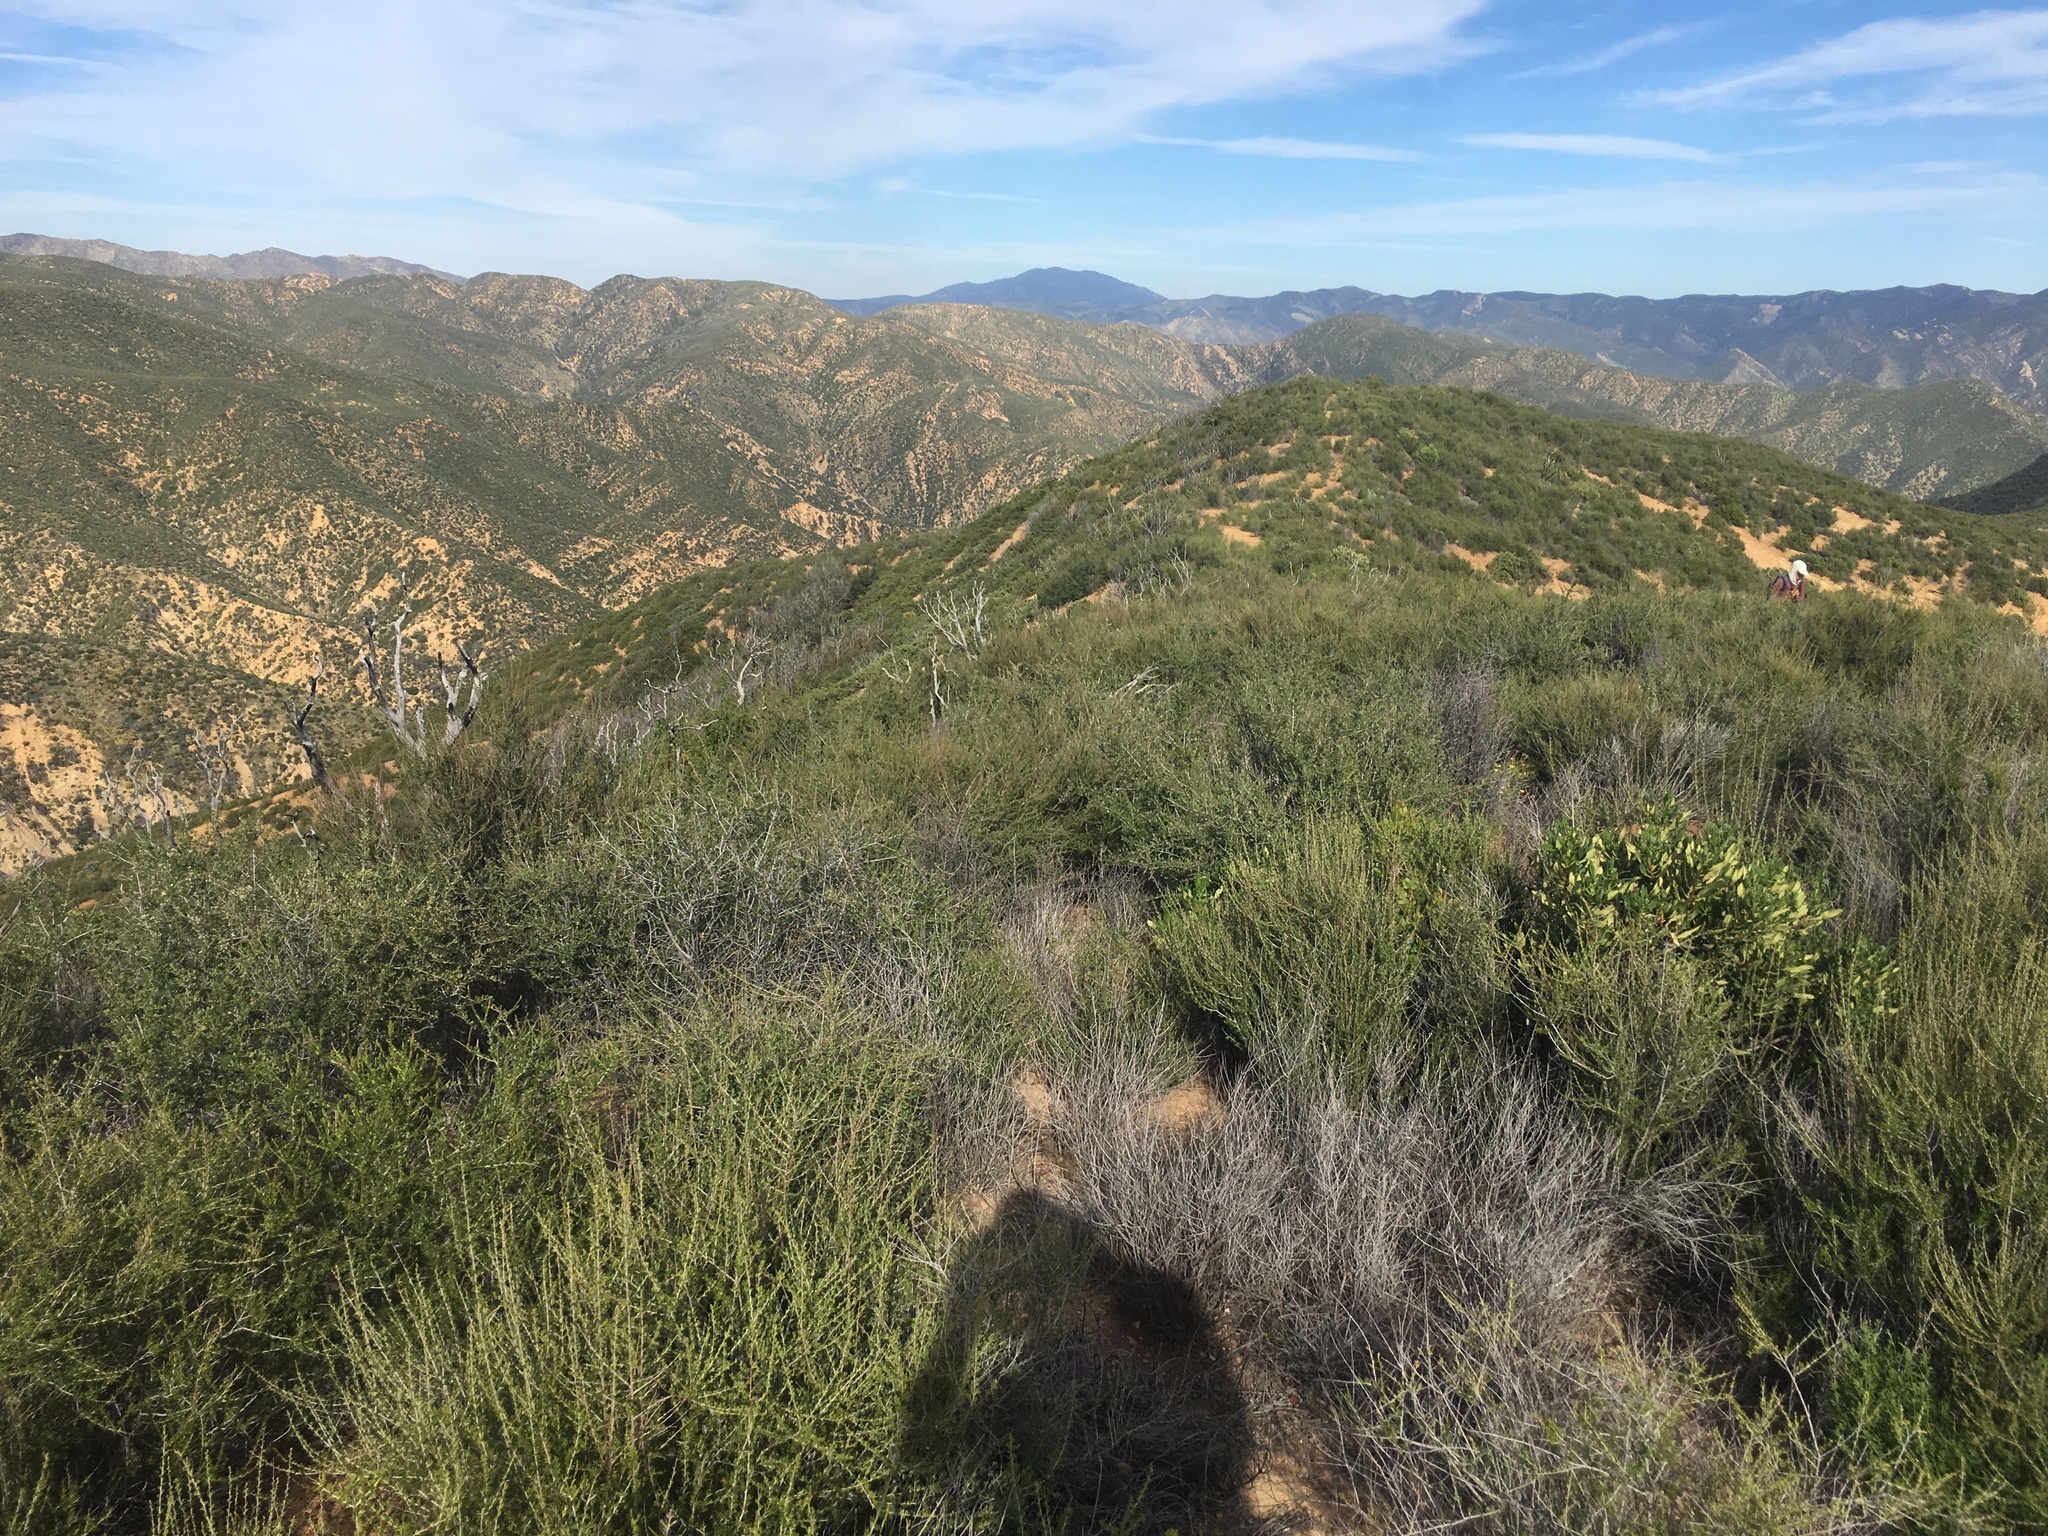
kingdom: Plantae
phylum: Tracheophyta
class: Magnoliopsida
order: Rosales
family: Rosaceae
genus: Adenostoma
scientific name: Adenostoma fasciculatum
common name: Chamise
